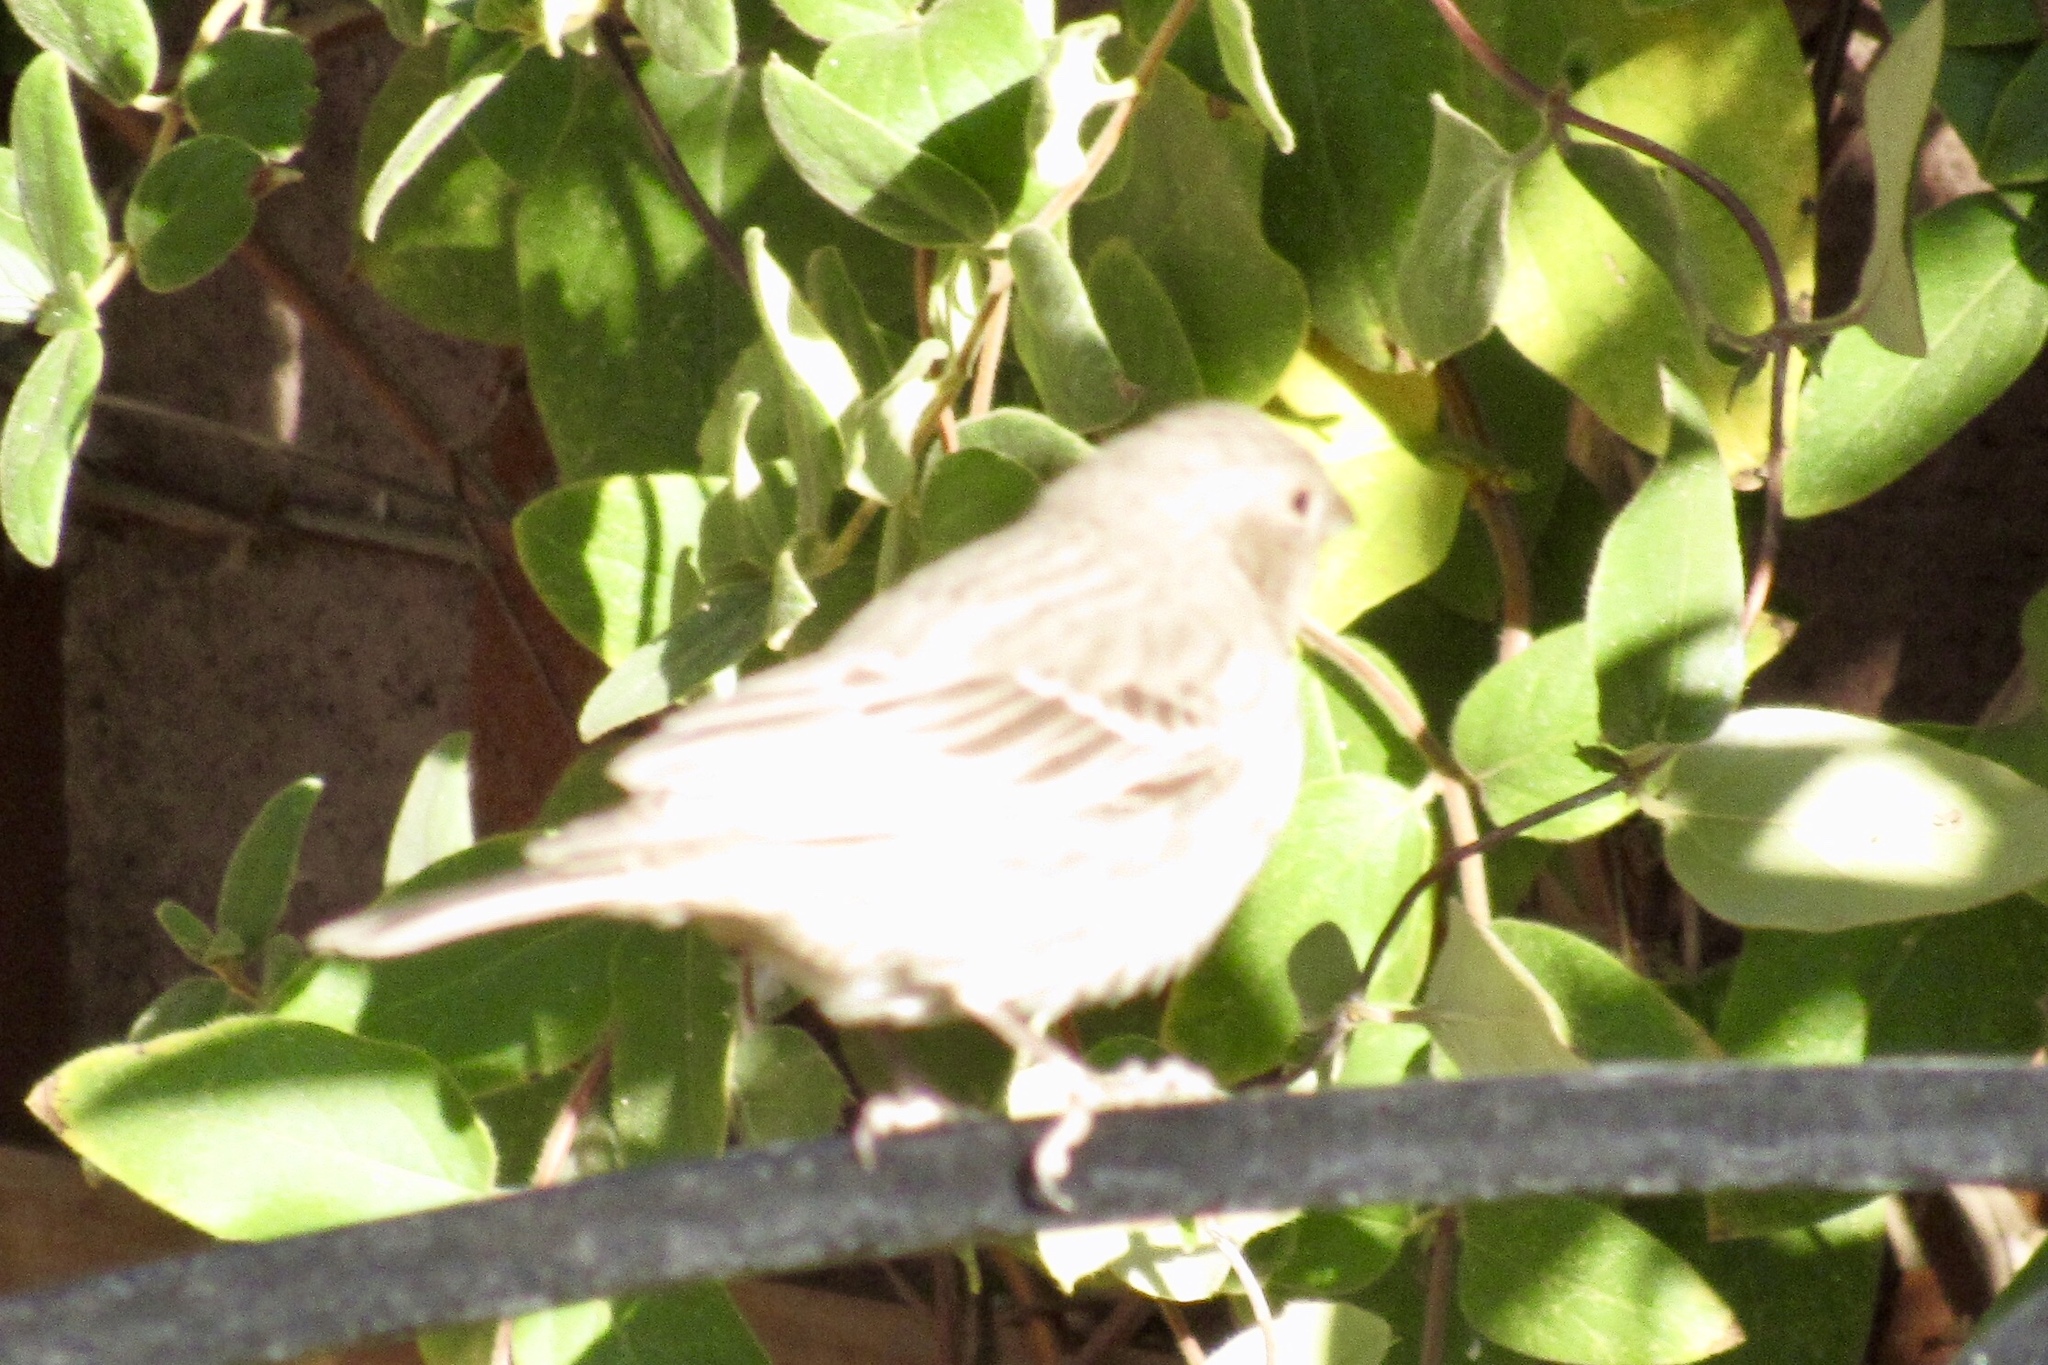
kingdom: Animalia
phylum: Chordata
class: Aves
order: Passeriformes
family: Fringillidae
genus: Haemorhous
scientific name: Haemorhous mexicanus
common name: House finch
